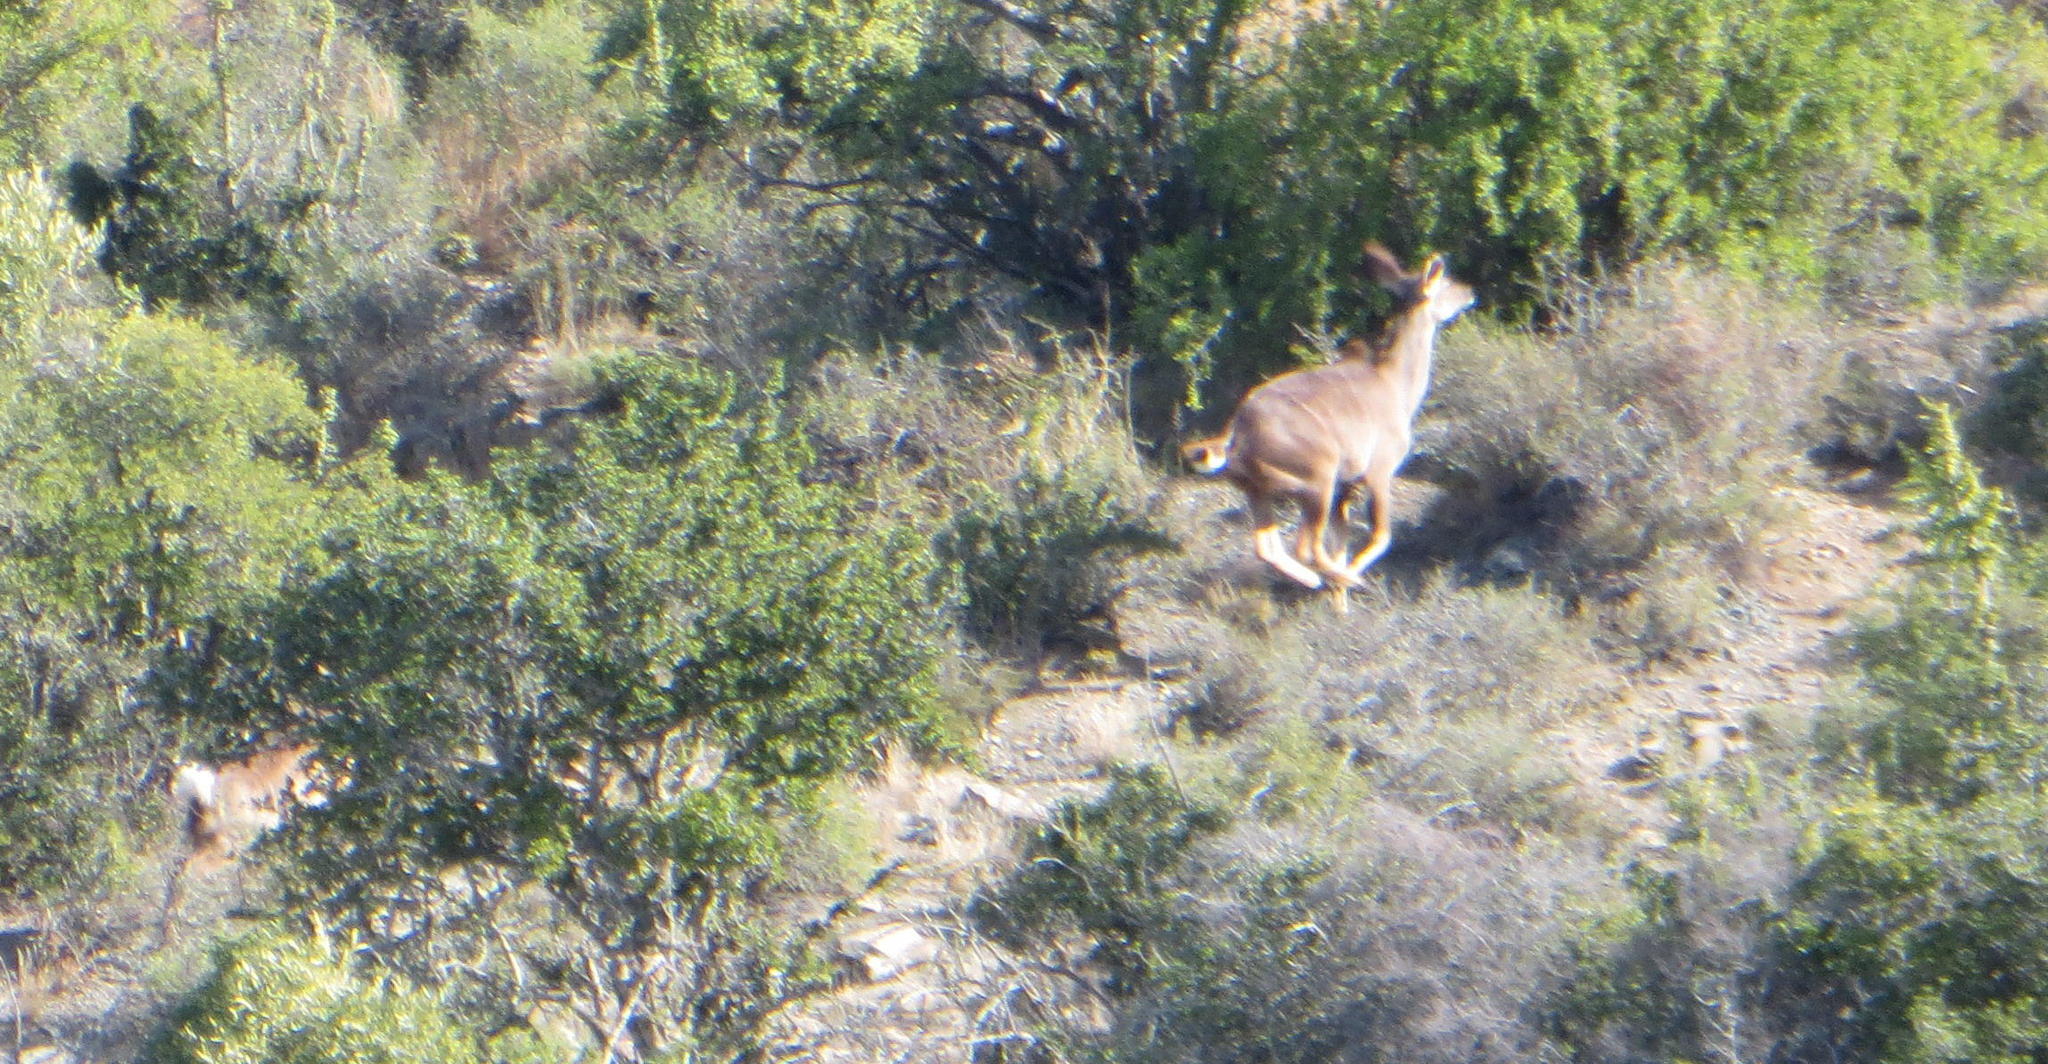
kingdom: Animalia
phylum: Chordata
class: Mammalia
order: Artiodactyla
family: Bovidae
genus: Tragelaphus
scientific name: Tragelaphus strepsiceros
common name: Greater kudu
